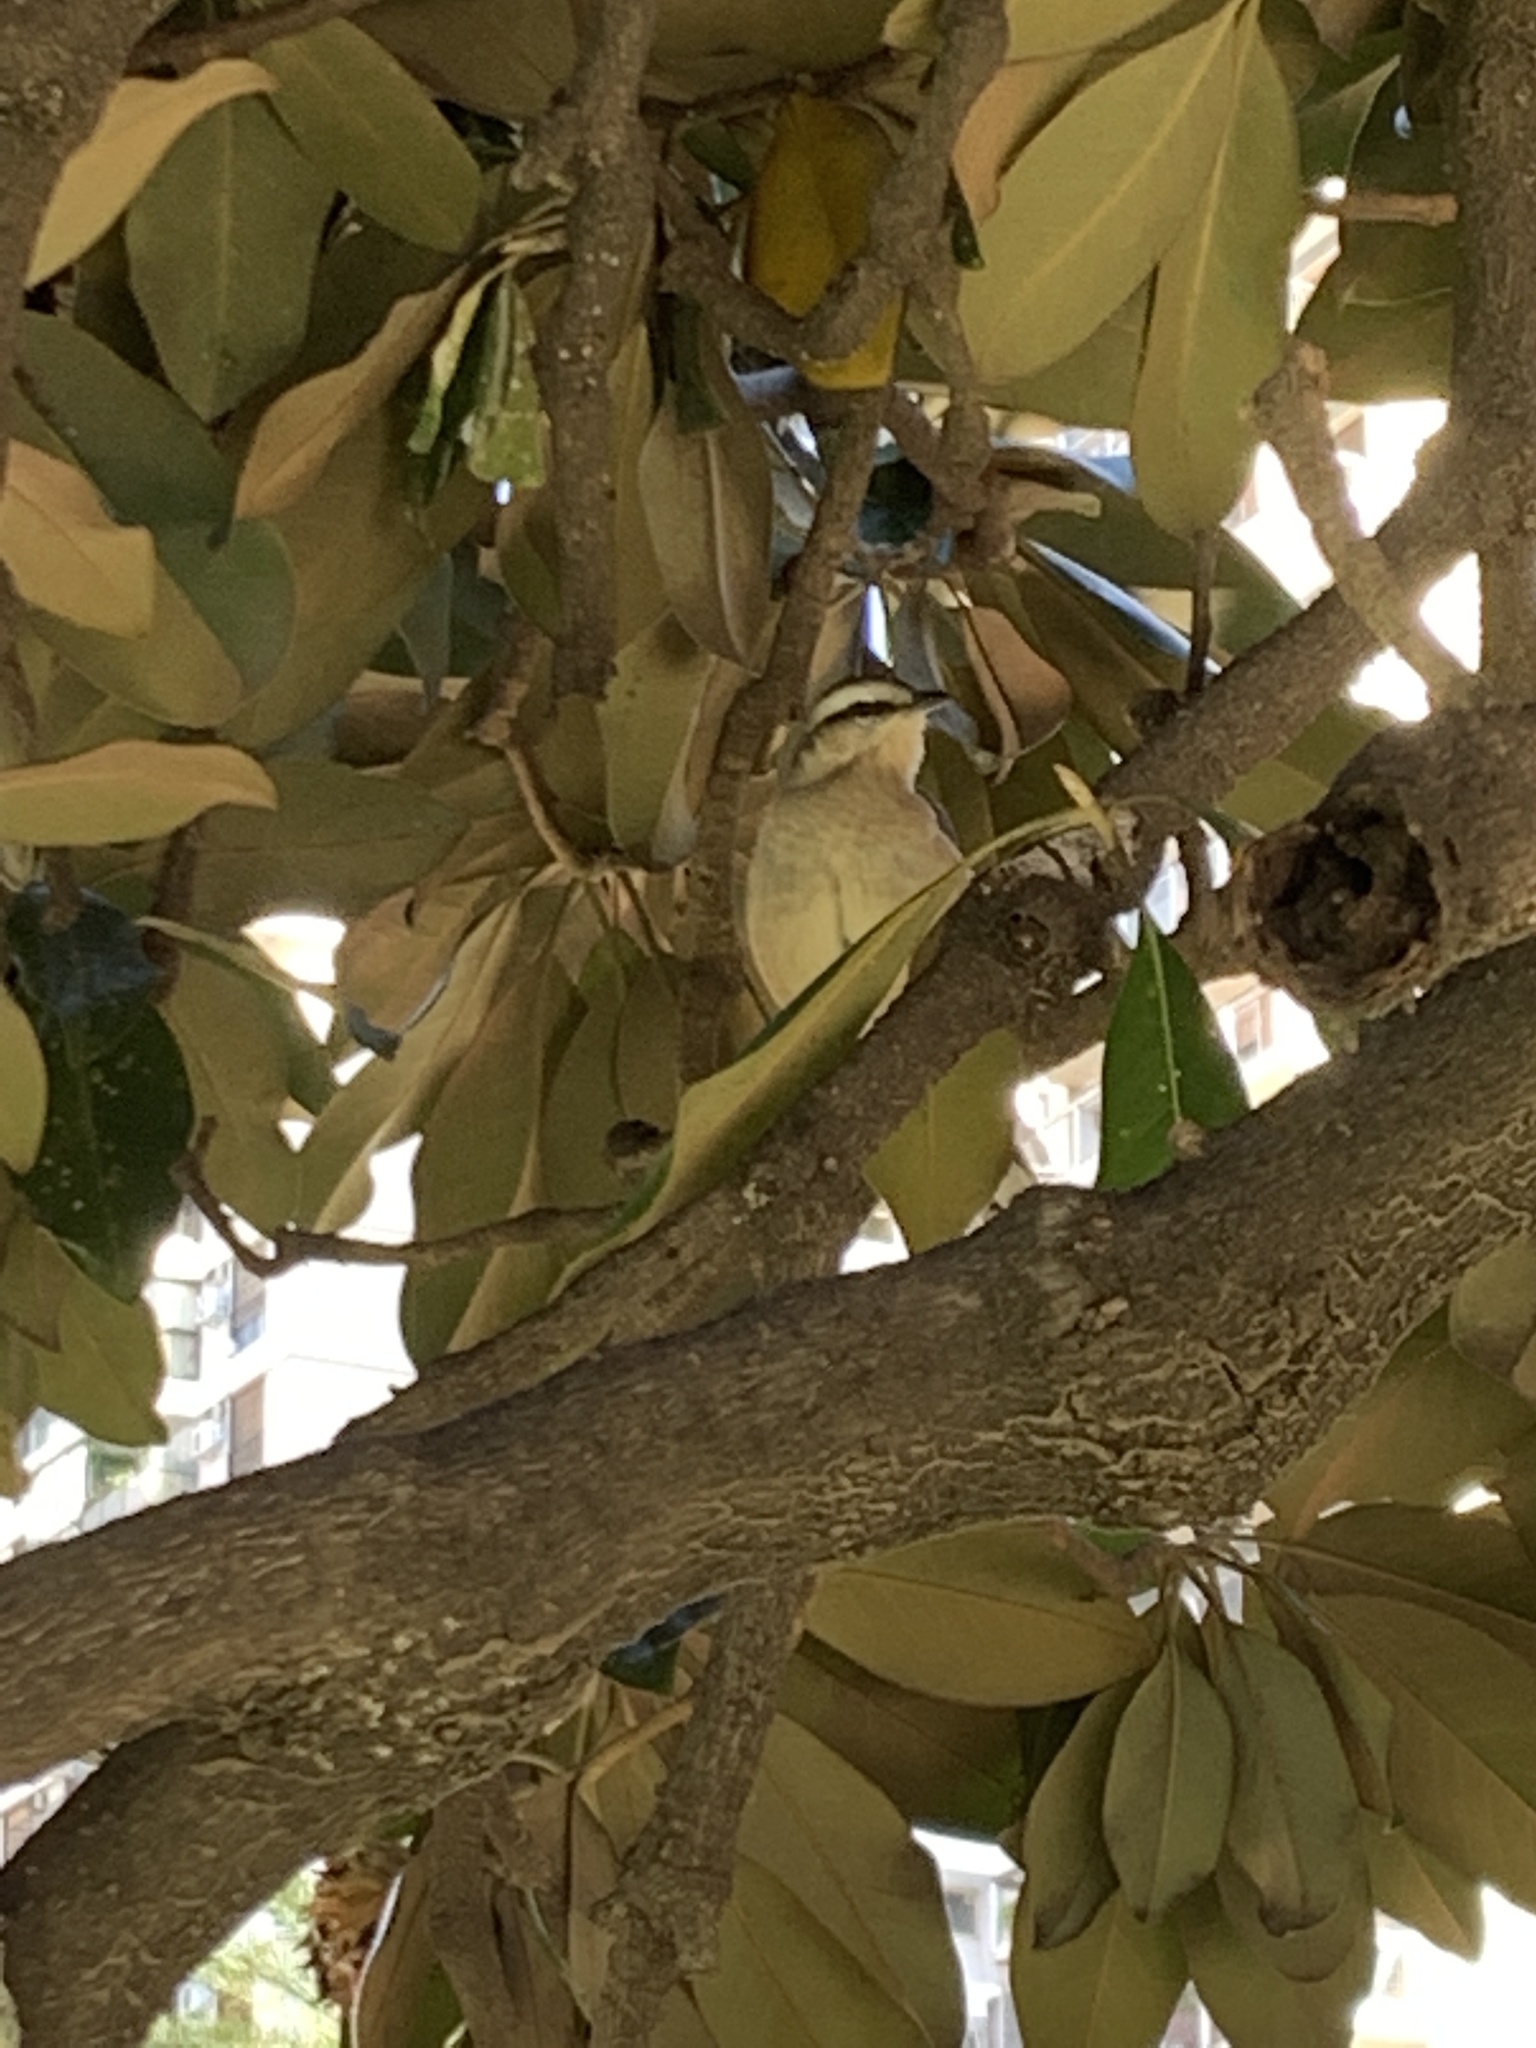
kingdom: Animalia
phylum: Chordata
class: Aves
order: Passeriformes
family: Mimidae
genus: Mimus
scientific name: Mimus saturninus
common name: Chalk-browed mockingbird
